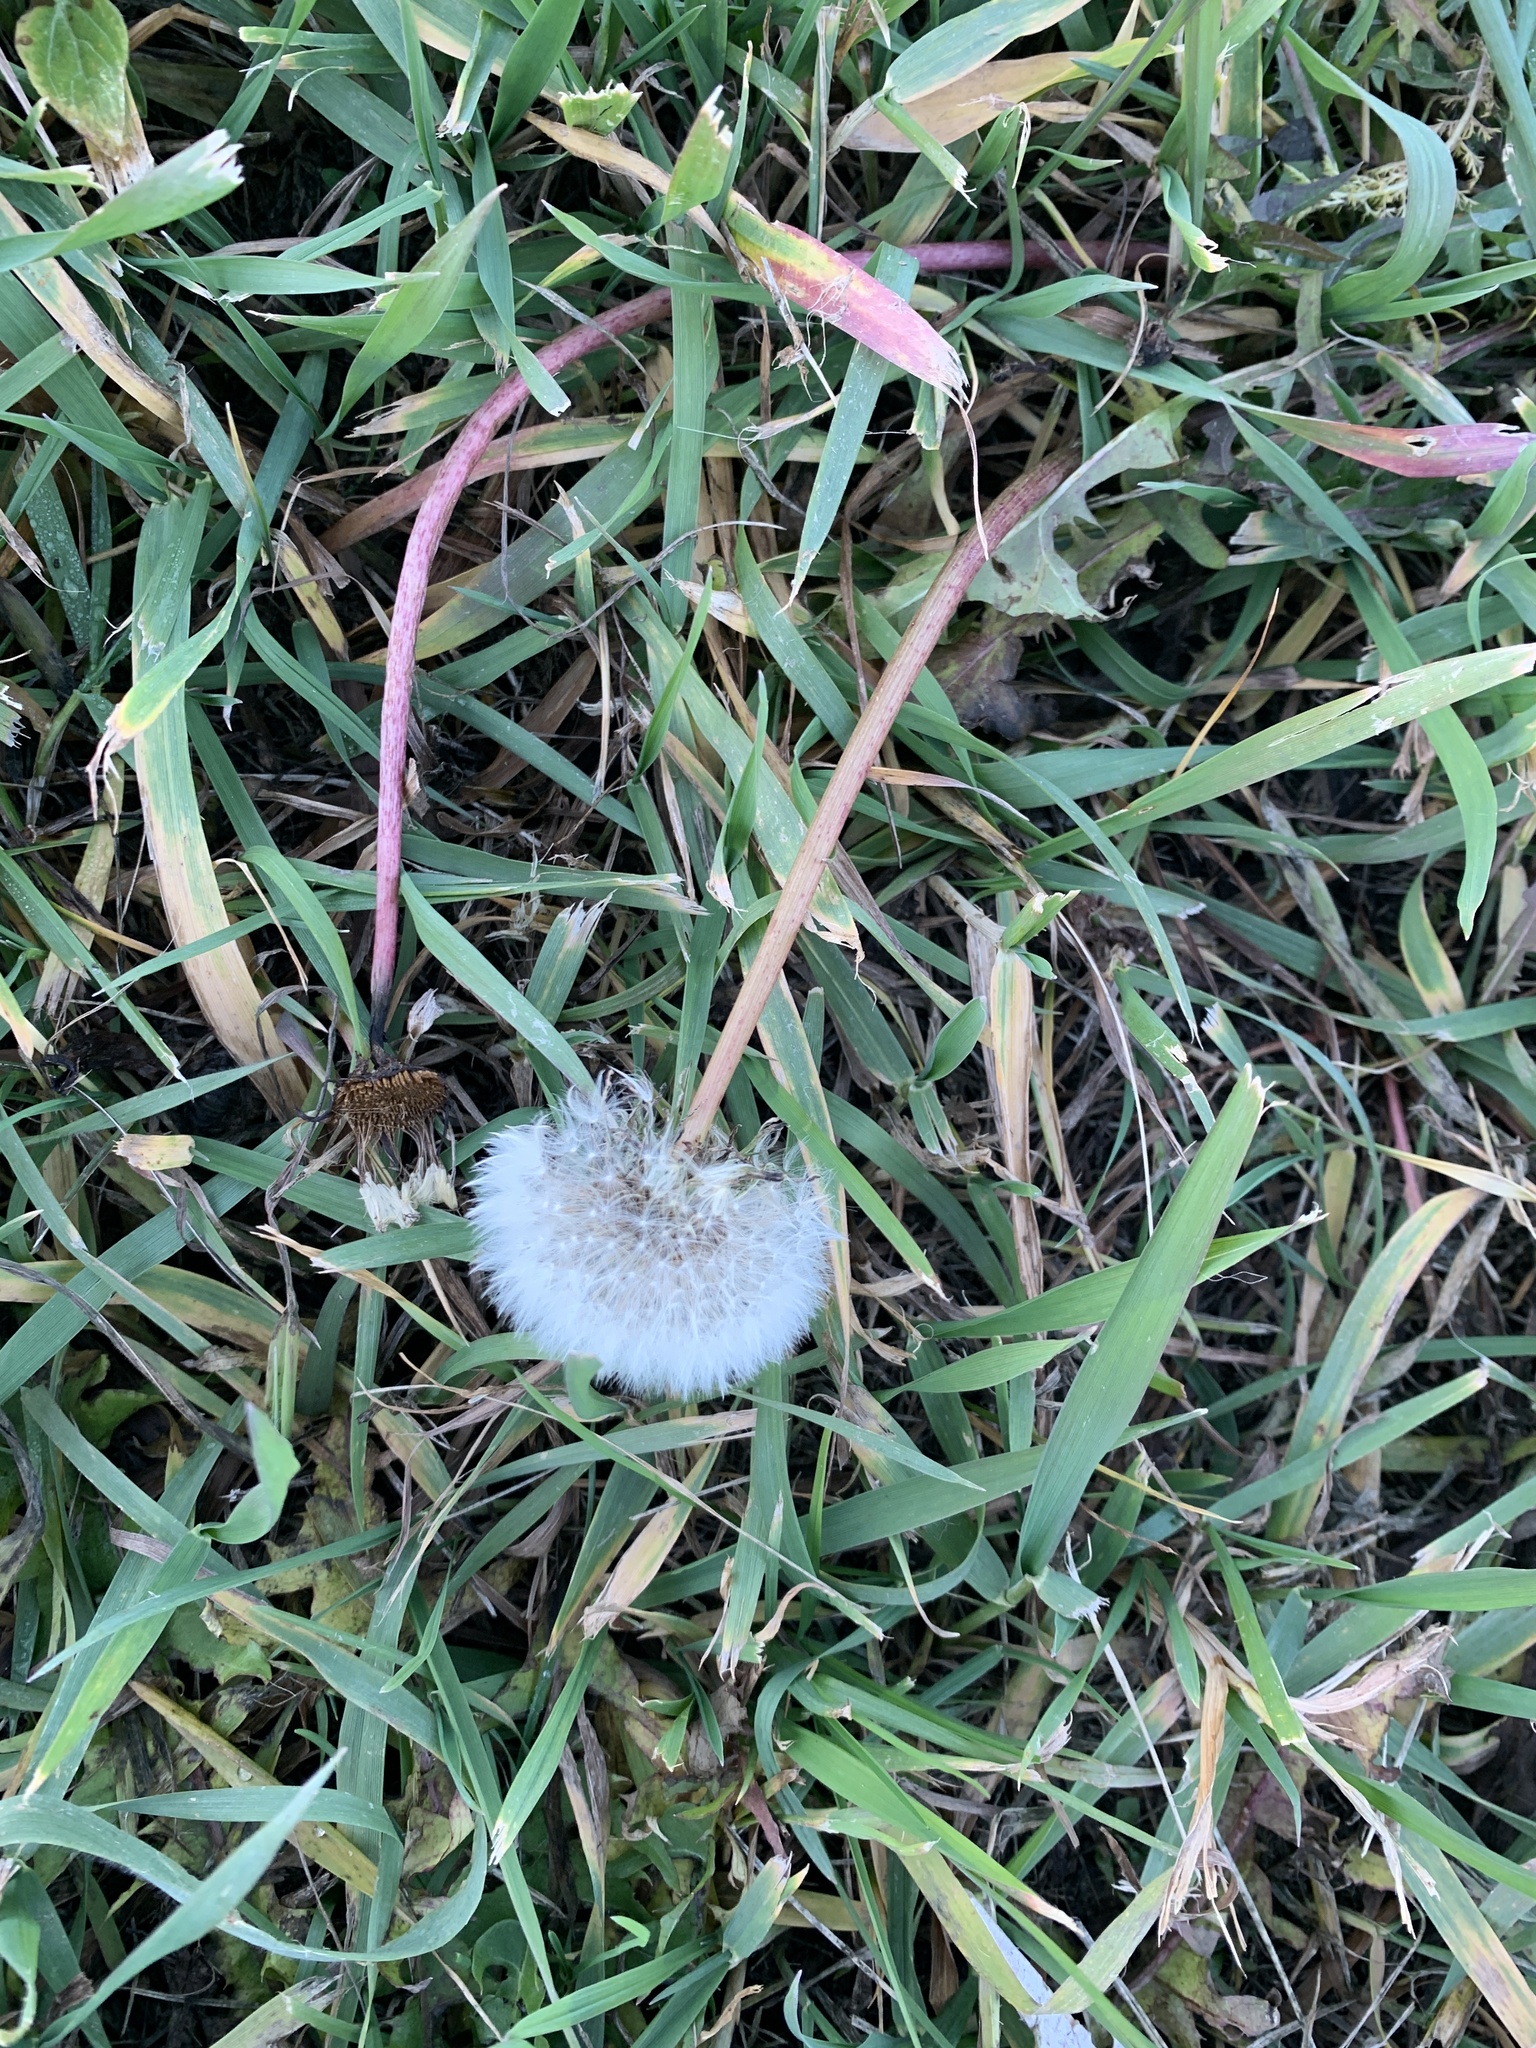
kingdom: Plantae
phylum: Tracheophyta
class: Magnoliopsida
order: Asterales
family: Asteraceae
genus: Taraxacum
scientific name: Taraxacum officinale
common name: Common dandelion
